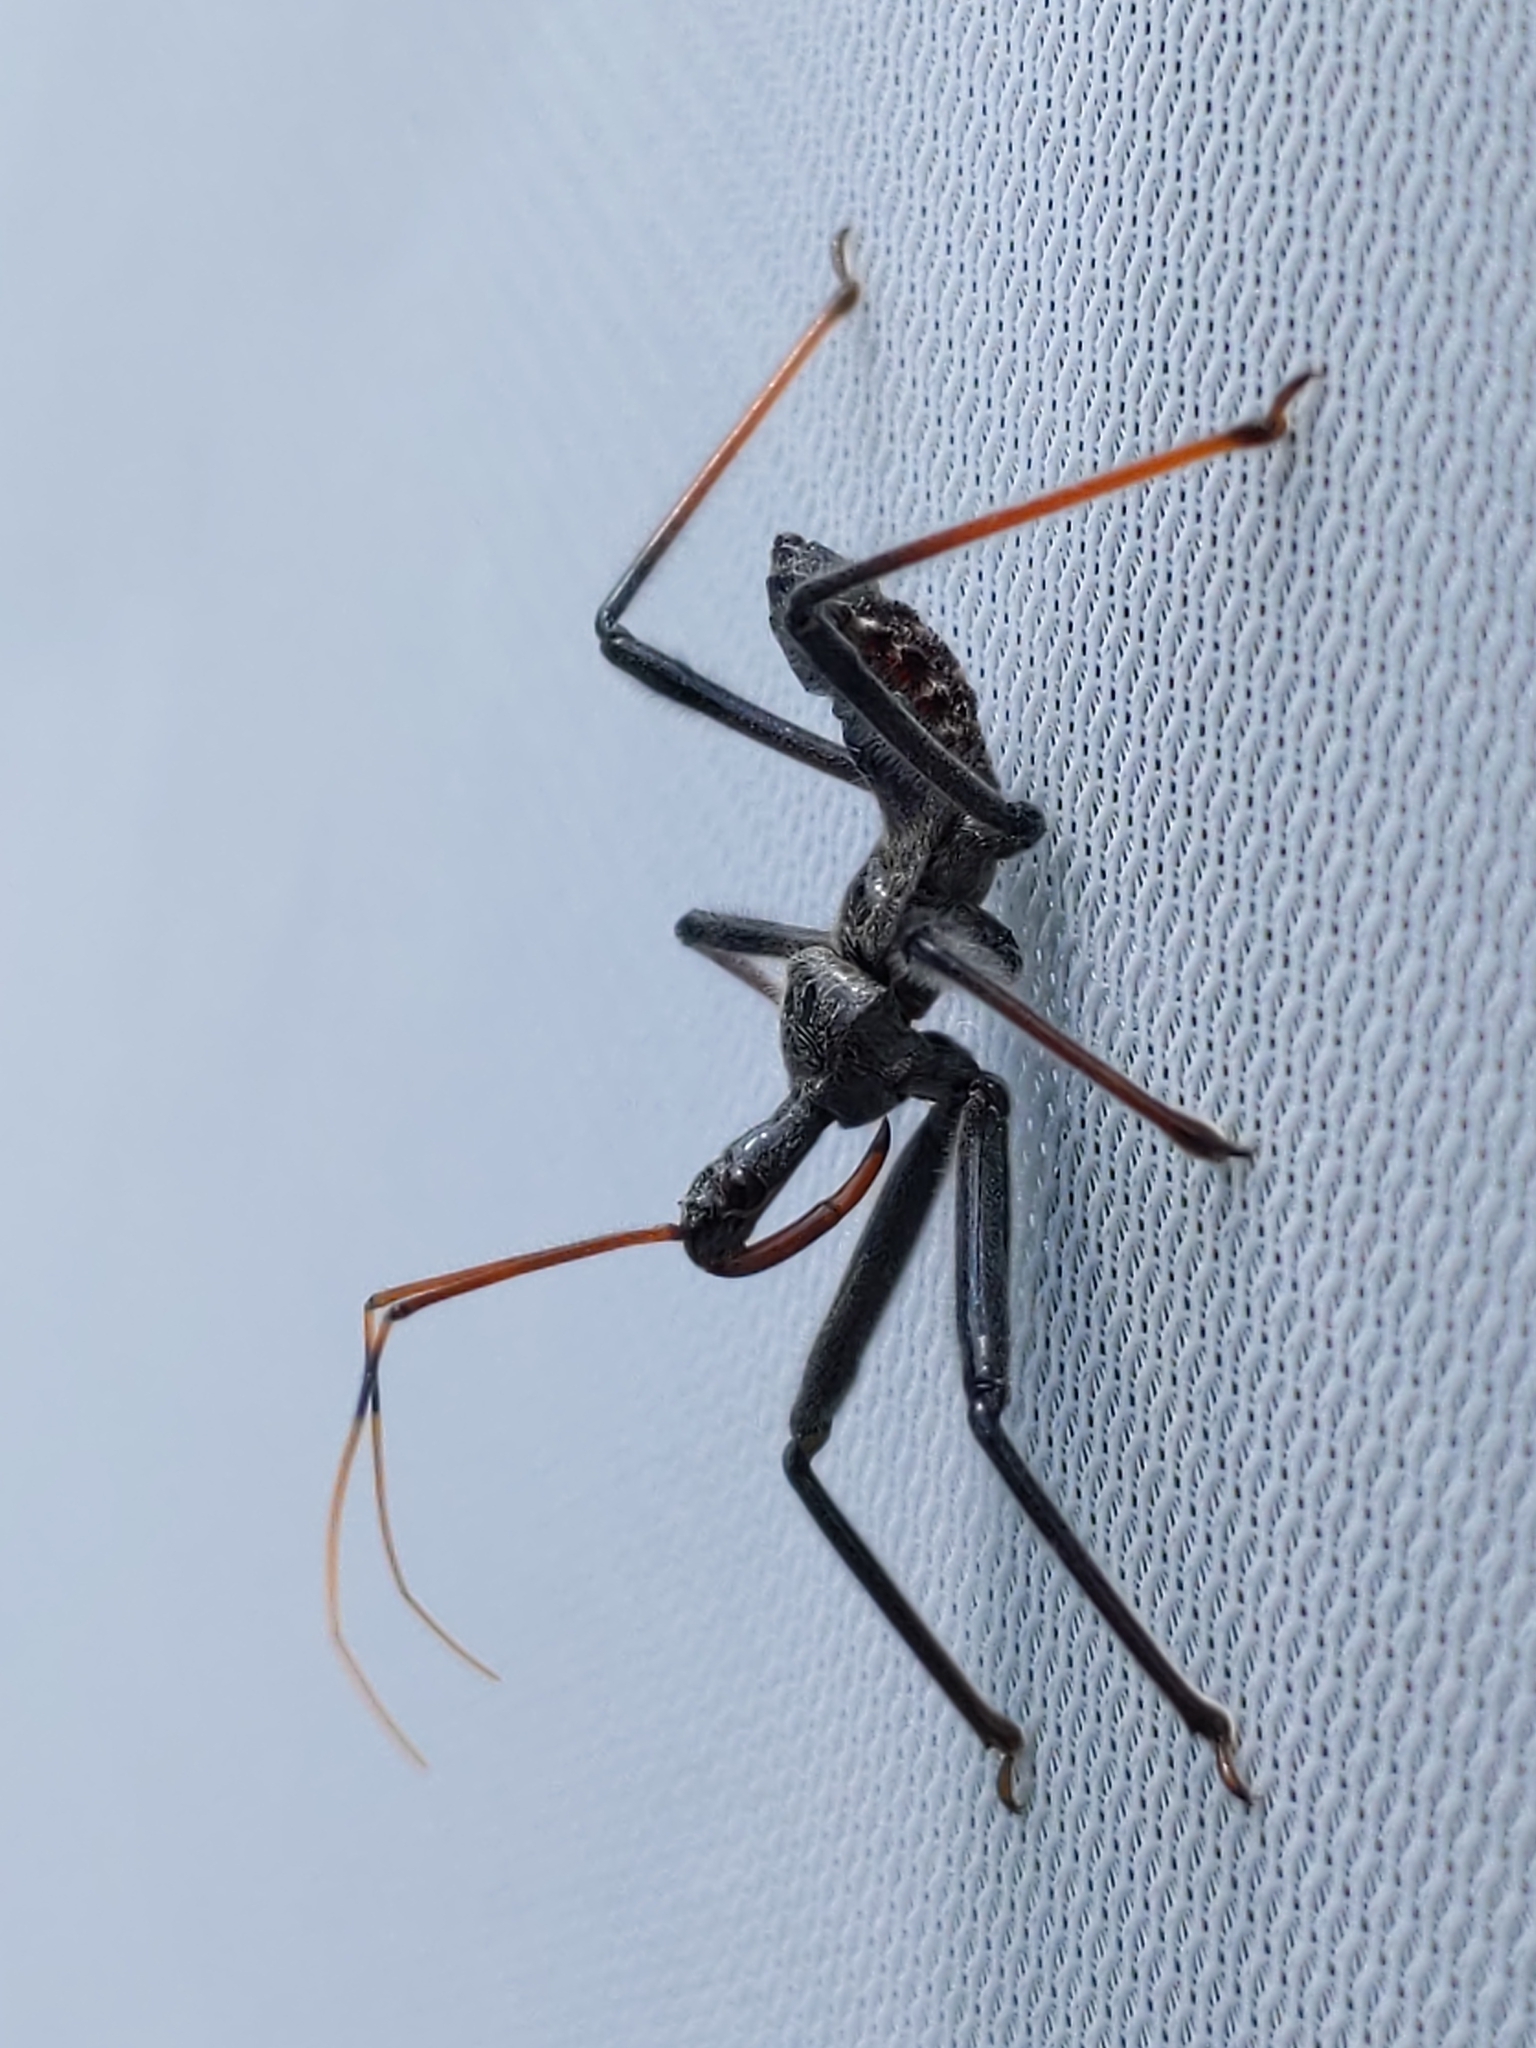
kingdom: Animalia
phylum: Arthropoda
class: Insecta
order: Hemiptera
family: Reduviidae
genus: Arilus
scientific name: Arilus cristatus
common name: North american wheel bug
